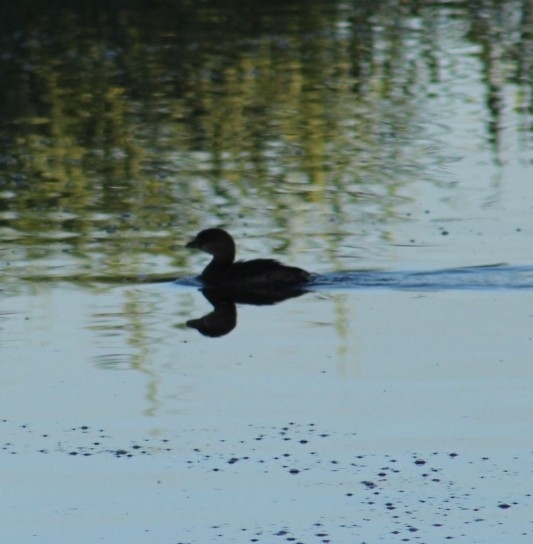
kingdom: Animalia
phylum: Chordata
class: Aves
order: Podicipediformes
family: Podicipedidae
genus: Podilymbus
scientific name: Podilymbus podiceps
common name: Pied-billed grebe
